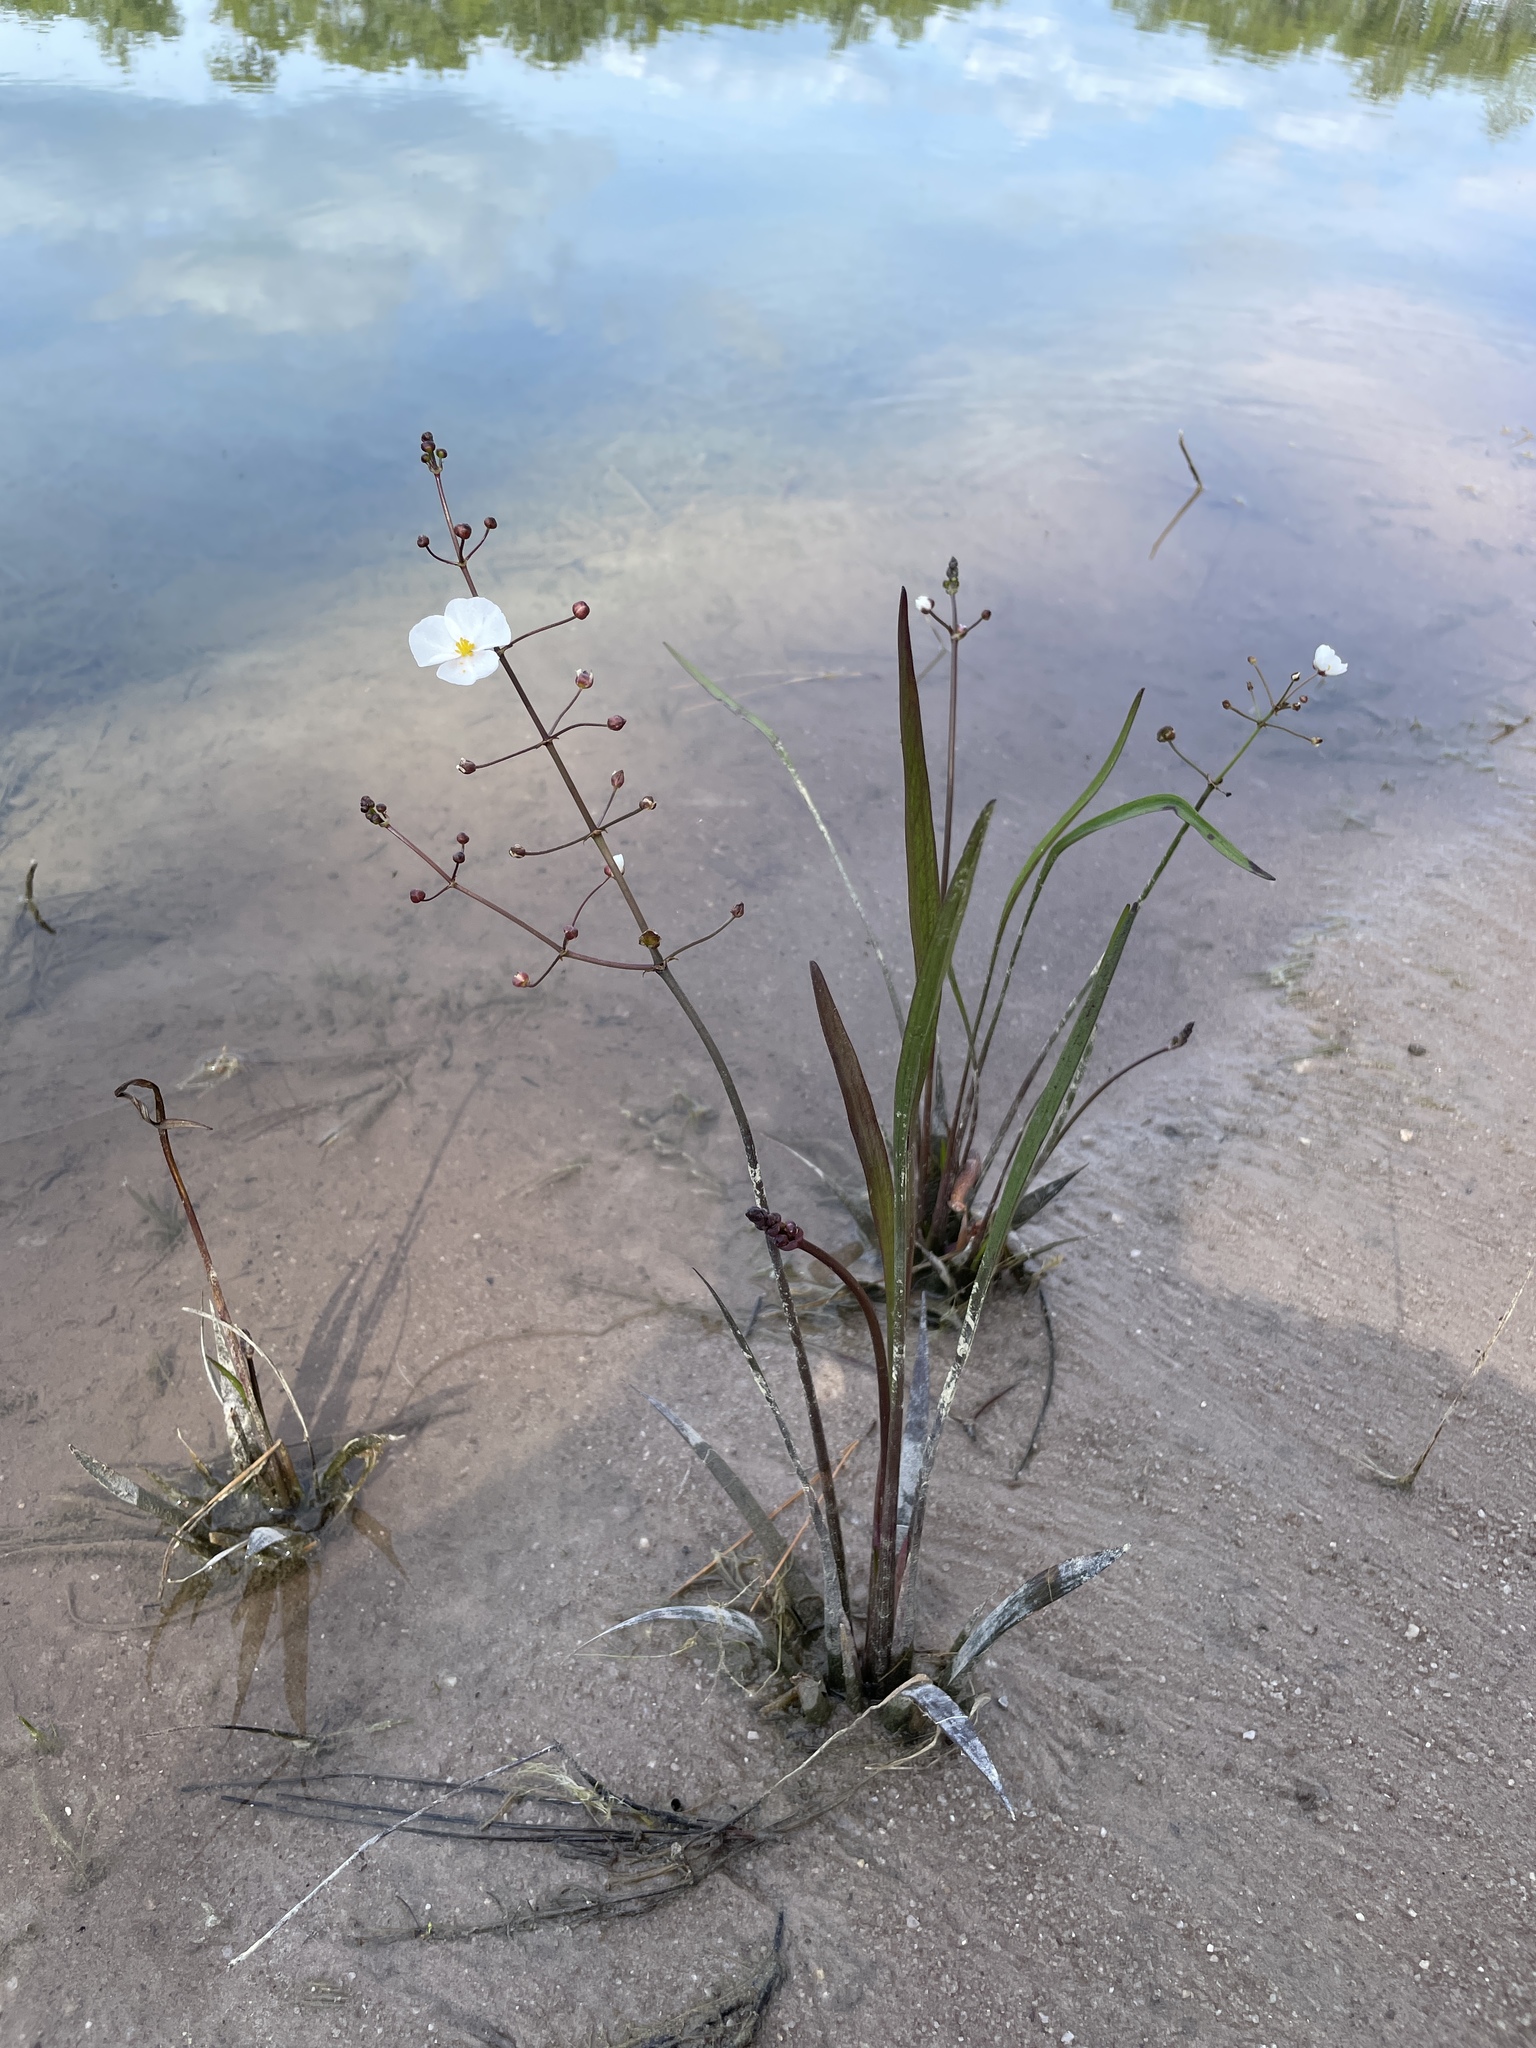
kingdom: Plantae
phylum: Tracheophyta
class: Liliopsida
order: Alismatales
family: Alismataceae
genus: Sagittaria
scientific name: Sagittaria graminea
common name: Grass-leaved arrowhead
